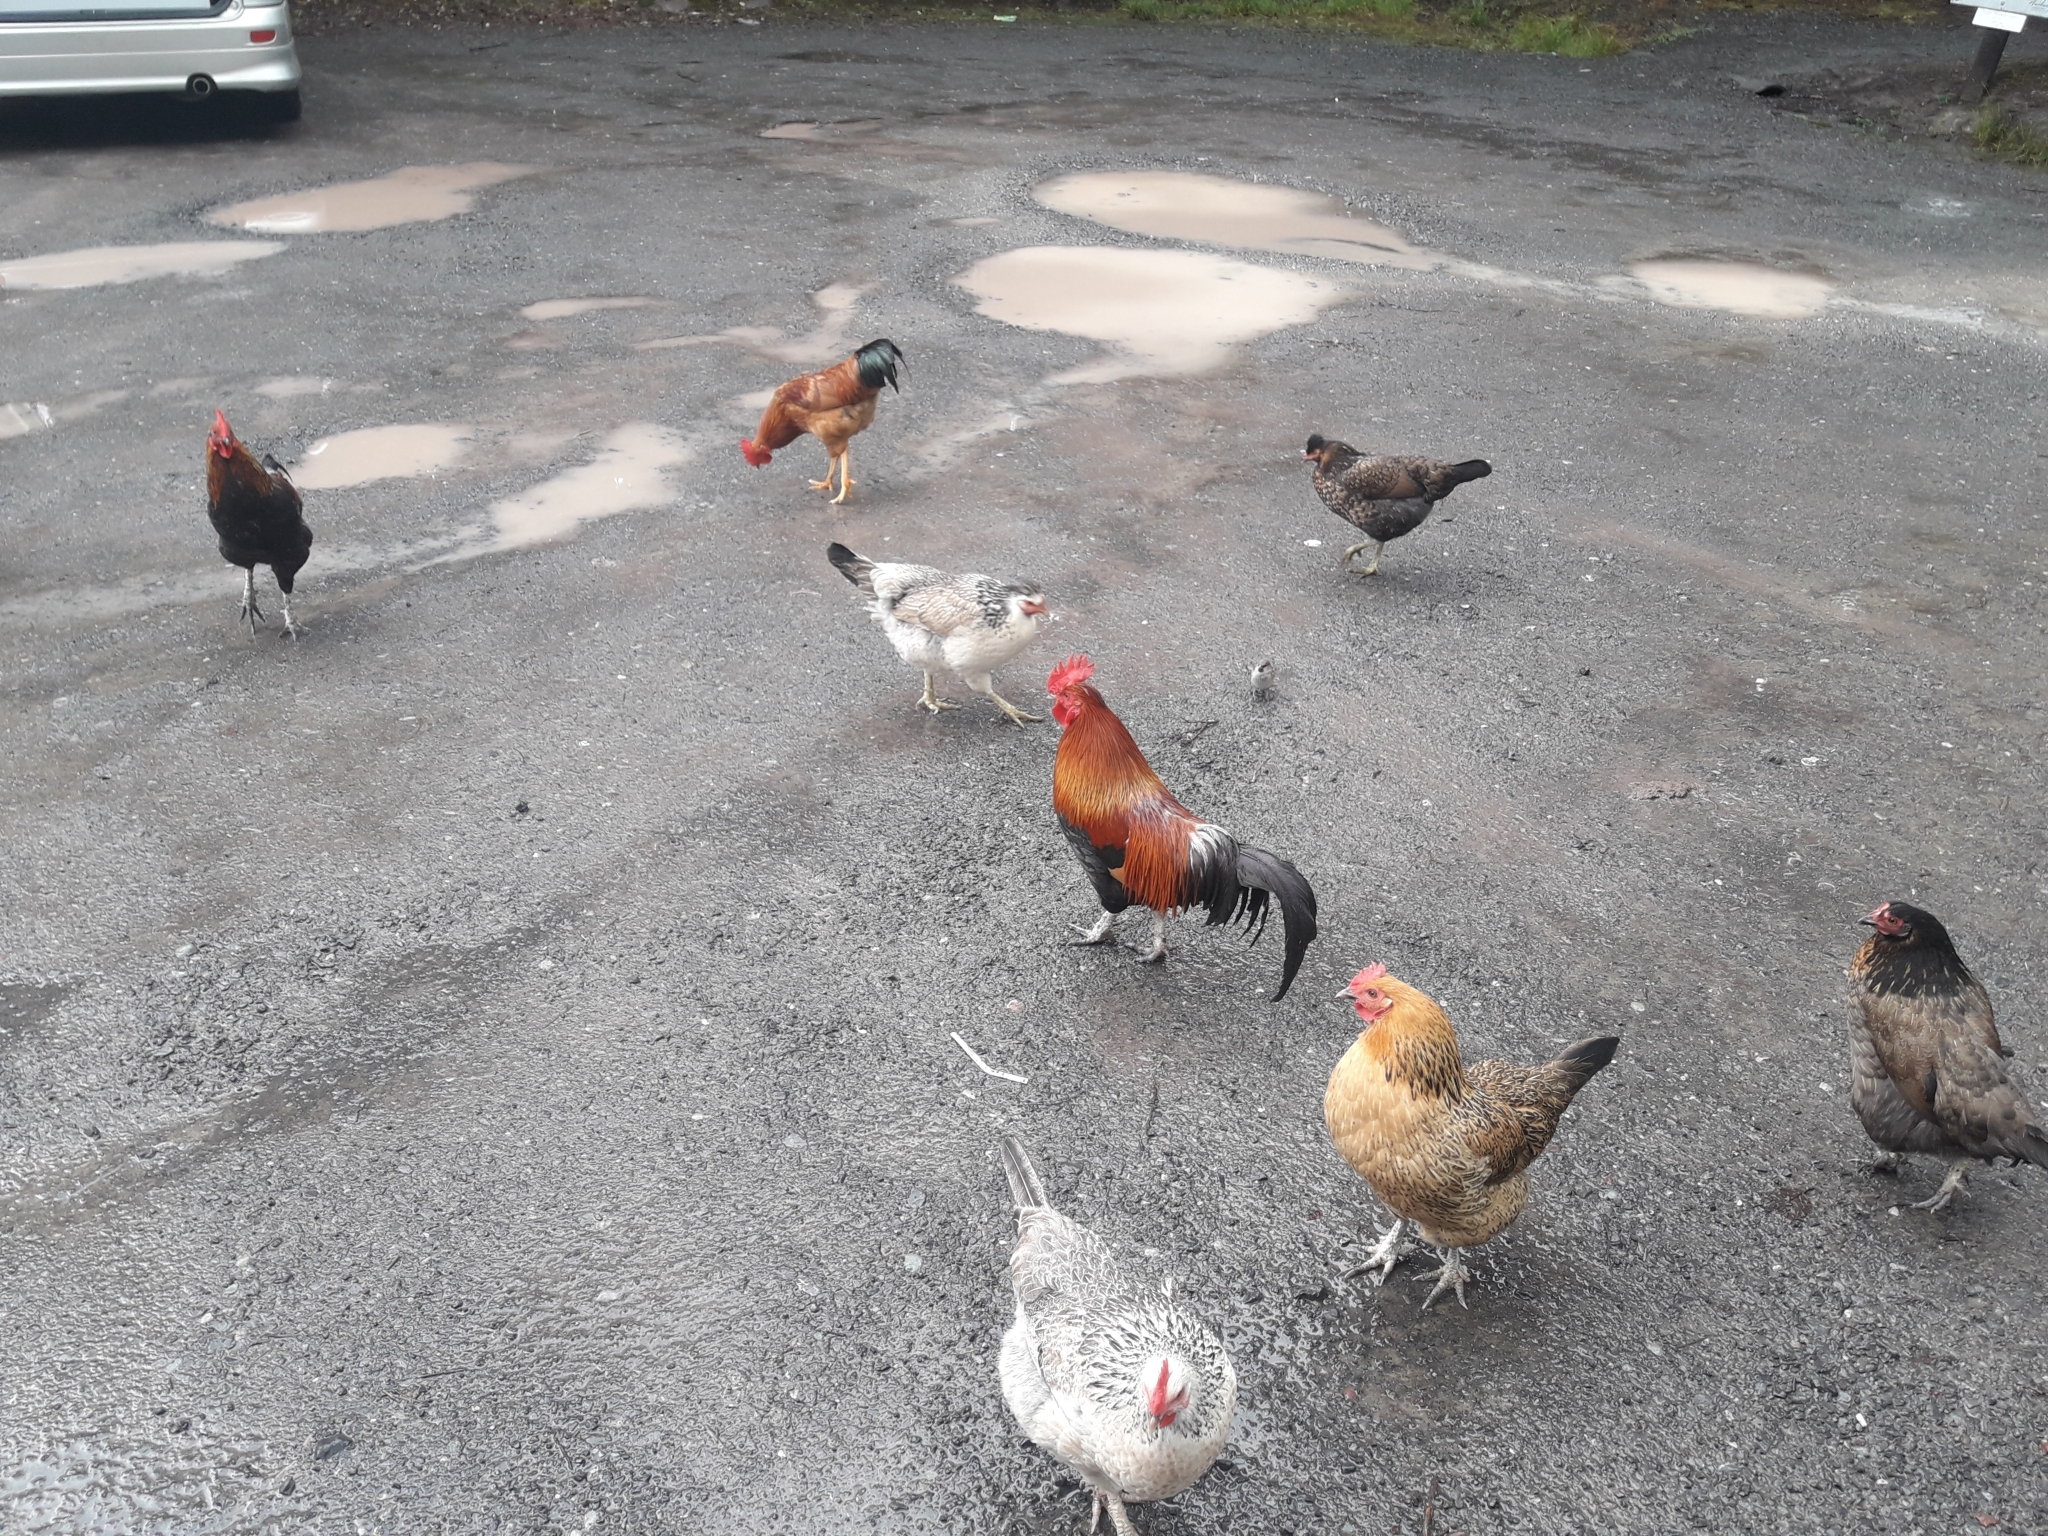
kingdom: Animalia
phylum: Chordata
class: Aves
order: Galliformes
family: Phasianidae
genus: Gallus
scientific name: Gallus gallus
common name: Red junglefowl
